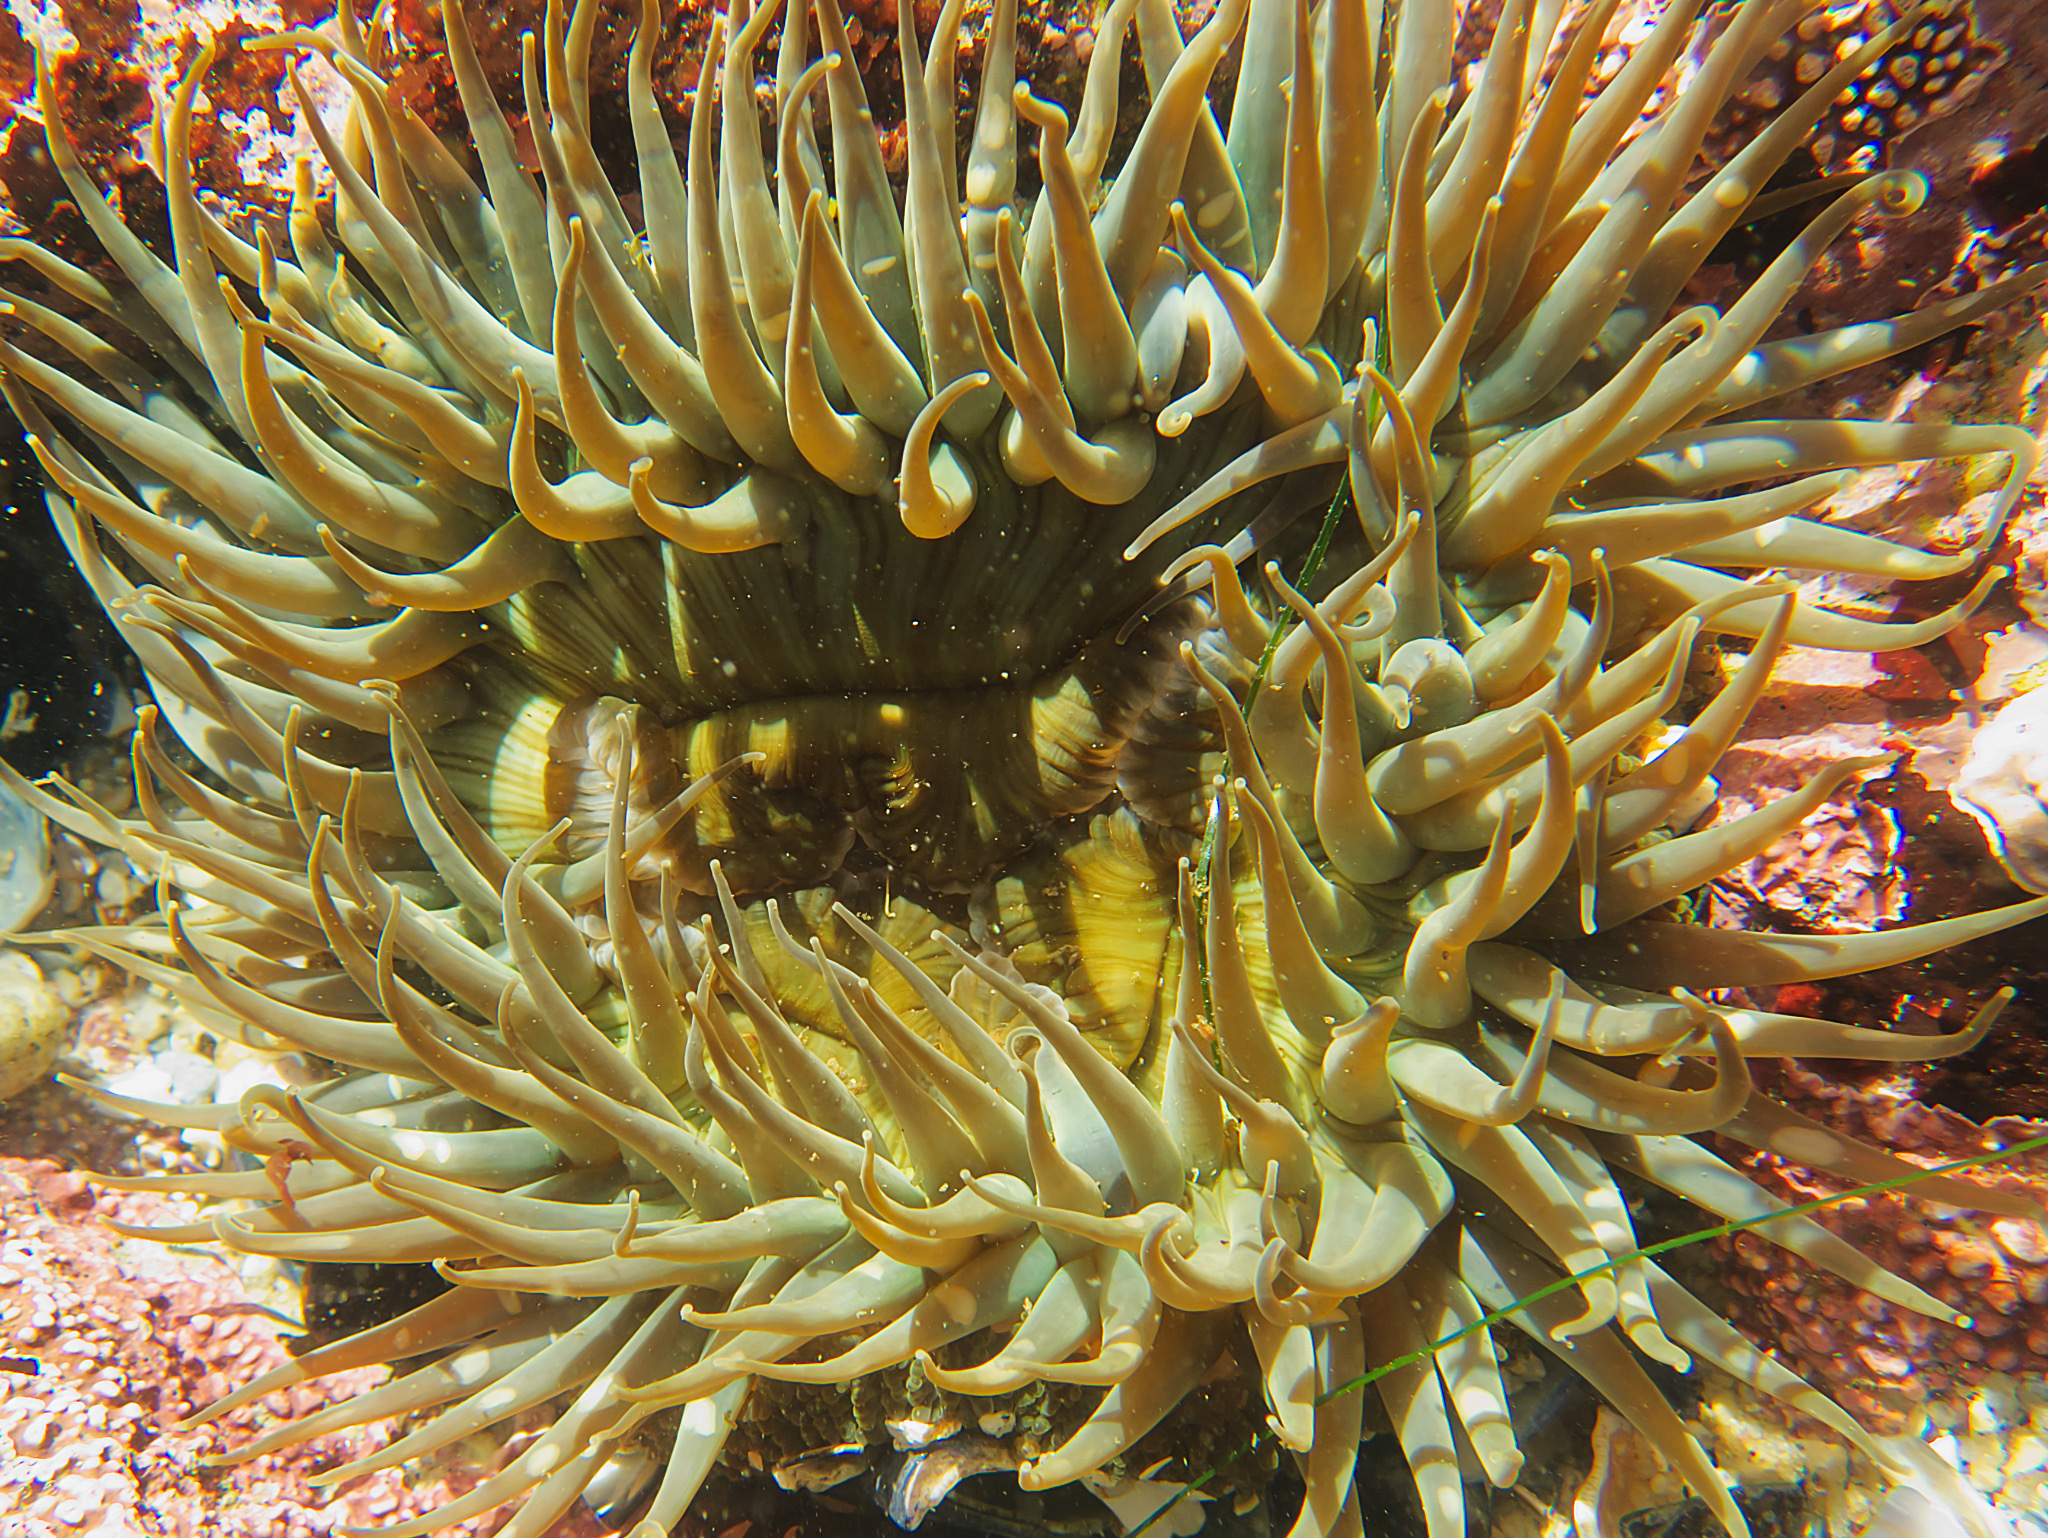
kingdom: Animalia
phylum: Cnidaria
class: Anthozoa
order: Actiniaria
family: Actiniidae
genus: Anthopleura
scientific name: Anthopleura sola
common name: Sun anemone
